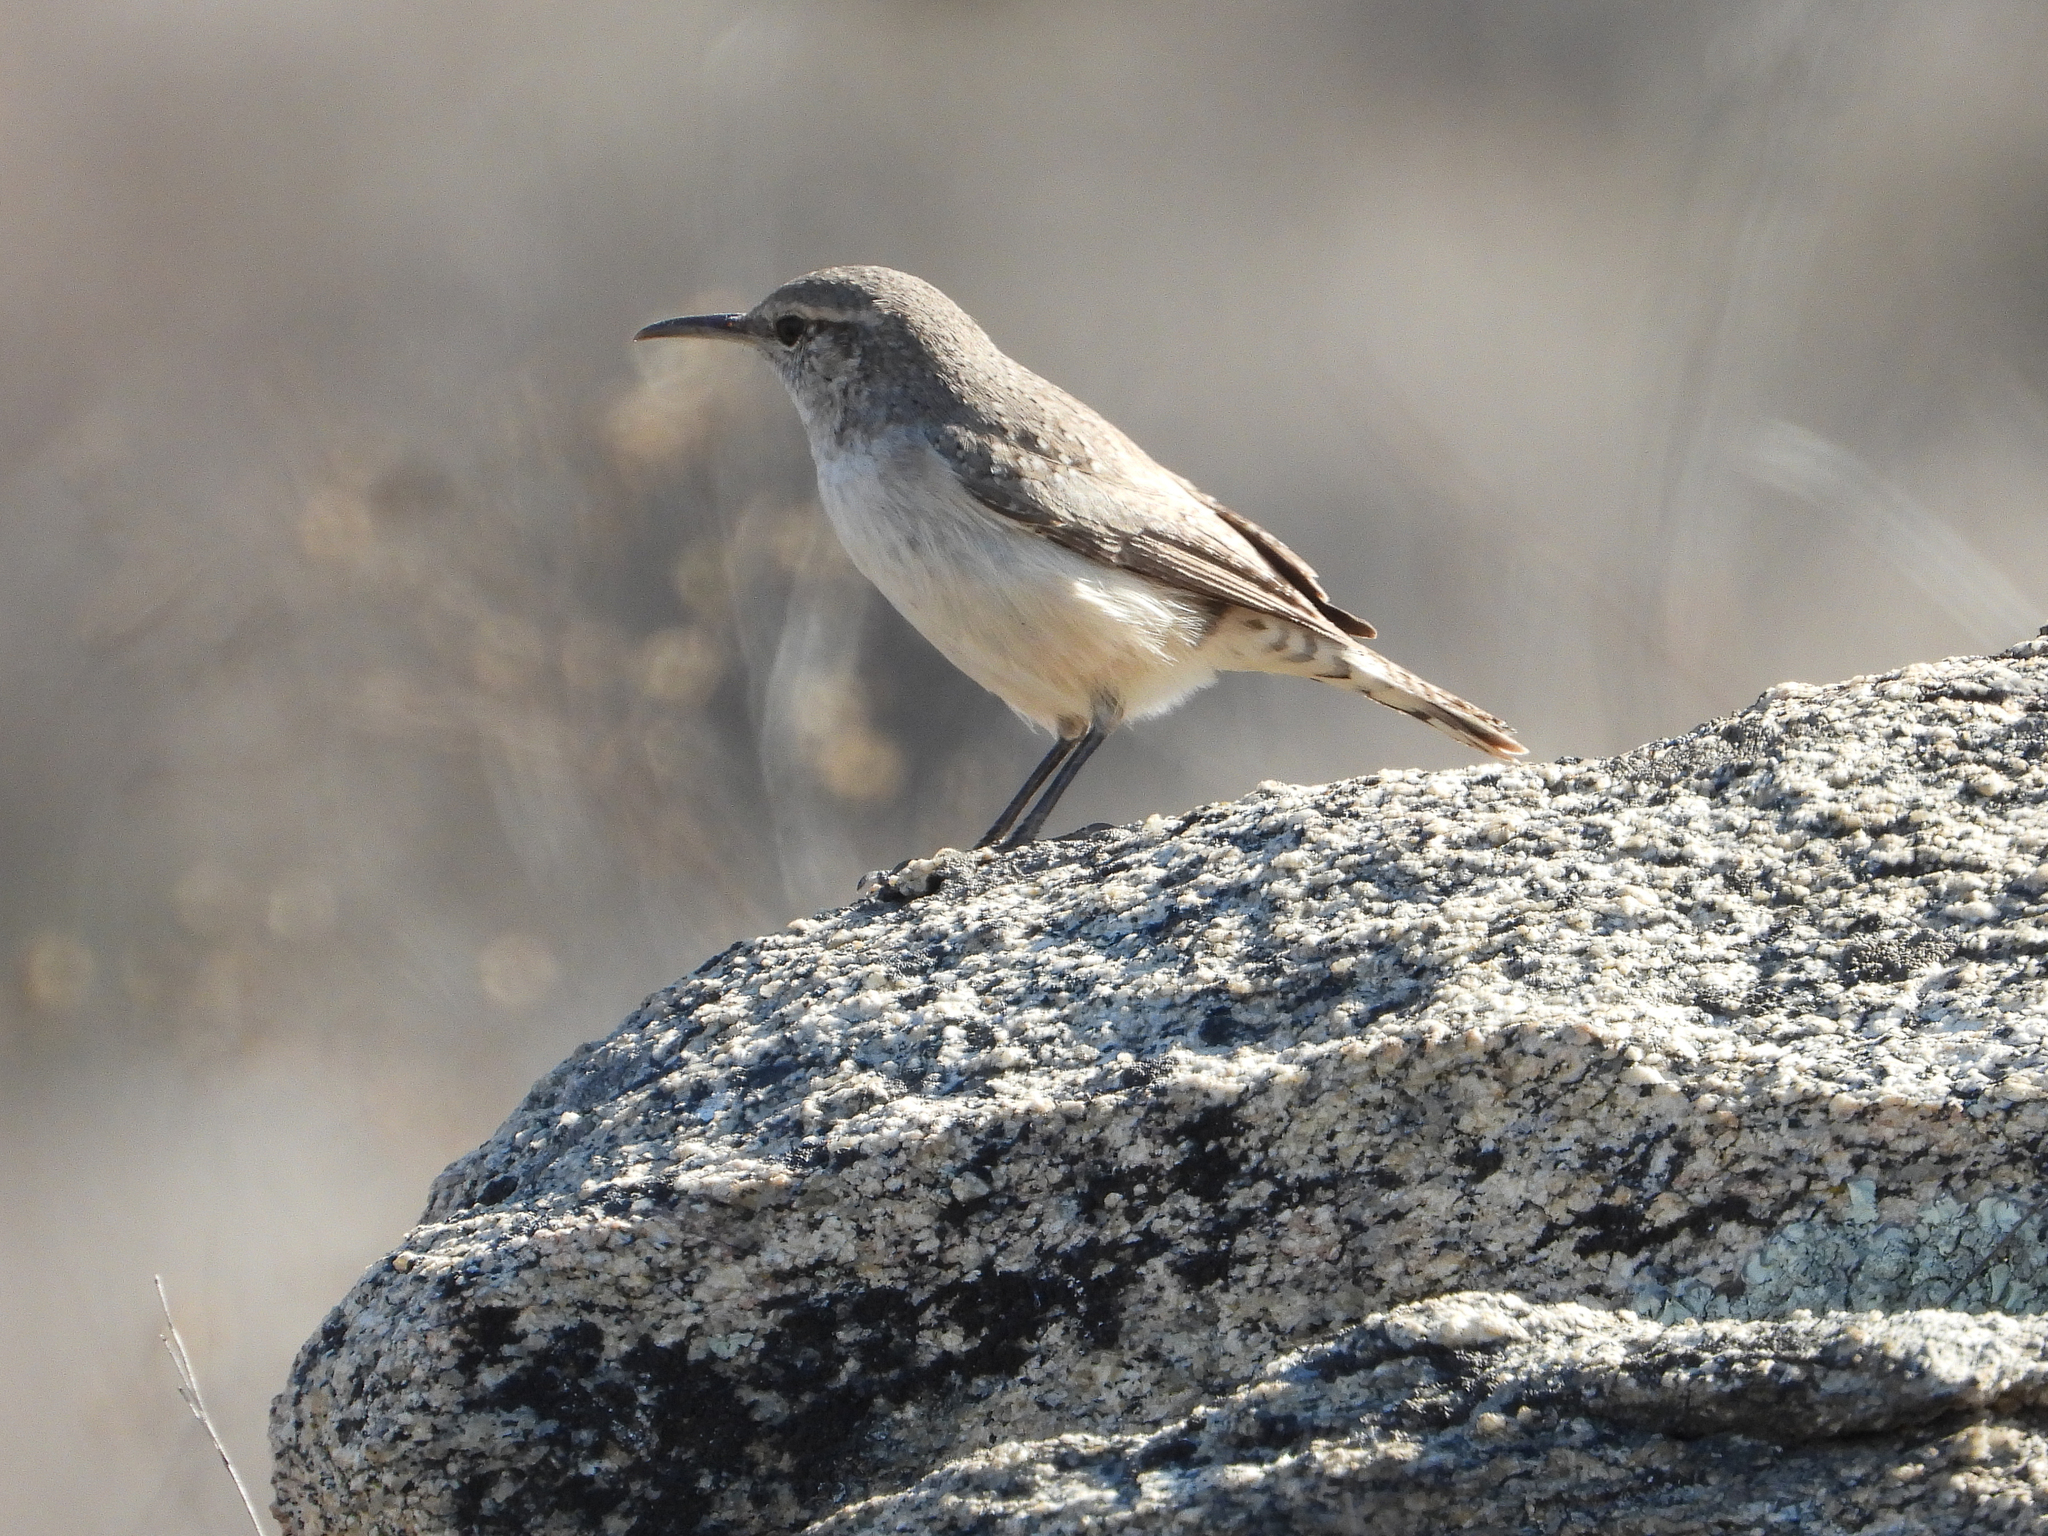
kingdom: Animalia
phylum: Chordata
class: Aves
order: Passeriformes
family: Troglodytidae
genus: Salpinctes
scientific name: Salpinctes obsoletus
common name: Rock wren
